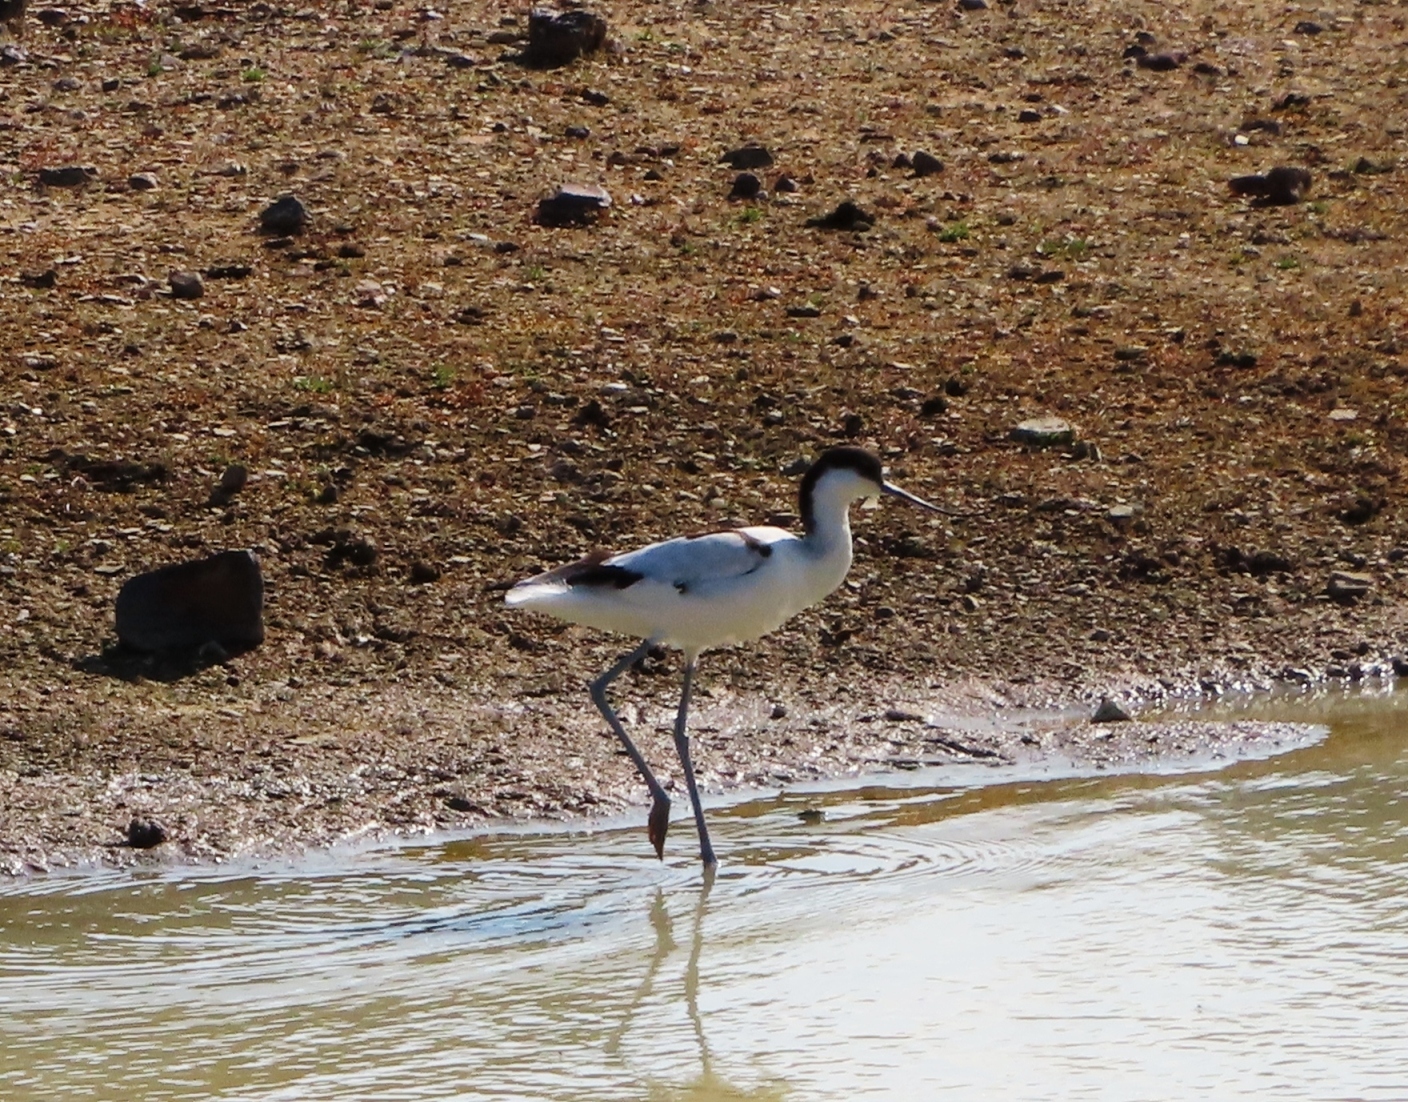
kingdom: Animalia
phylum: Chordata
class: Aves
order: Charadriiformes
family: Recurvirostridae
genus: Recurvirostra
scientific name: Recurvirostra avosetta
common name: Pied avocet
